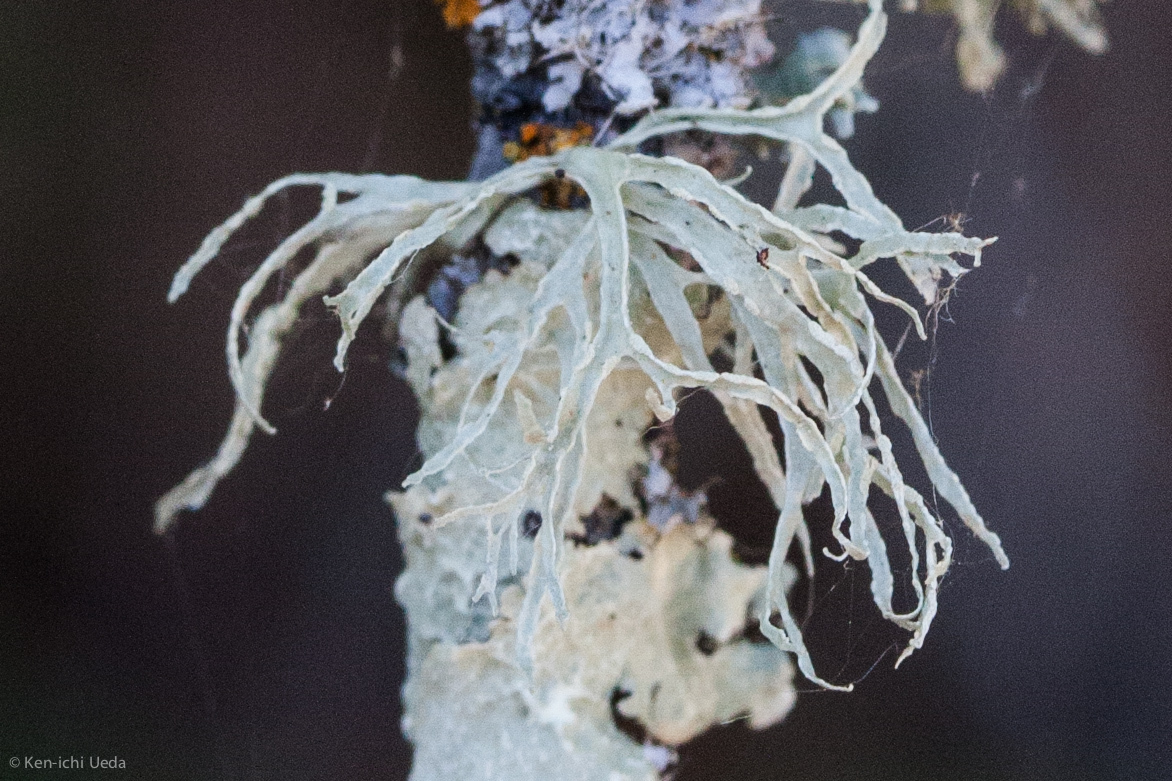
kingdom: Fungi
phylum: Ascomycota
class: Lecanoromycetes
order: Lecanorales
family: Ramalinaceae
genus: Ramalina
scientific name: Ramalina farinacea
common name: Farinose cartilage lichen
